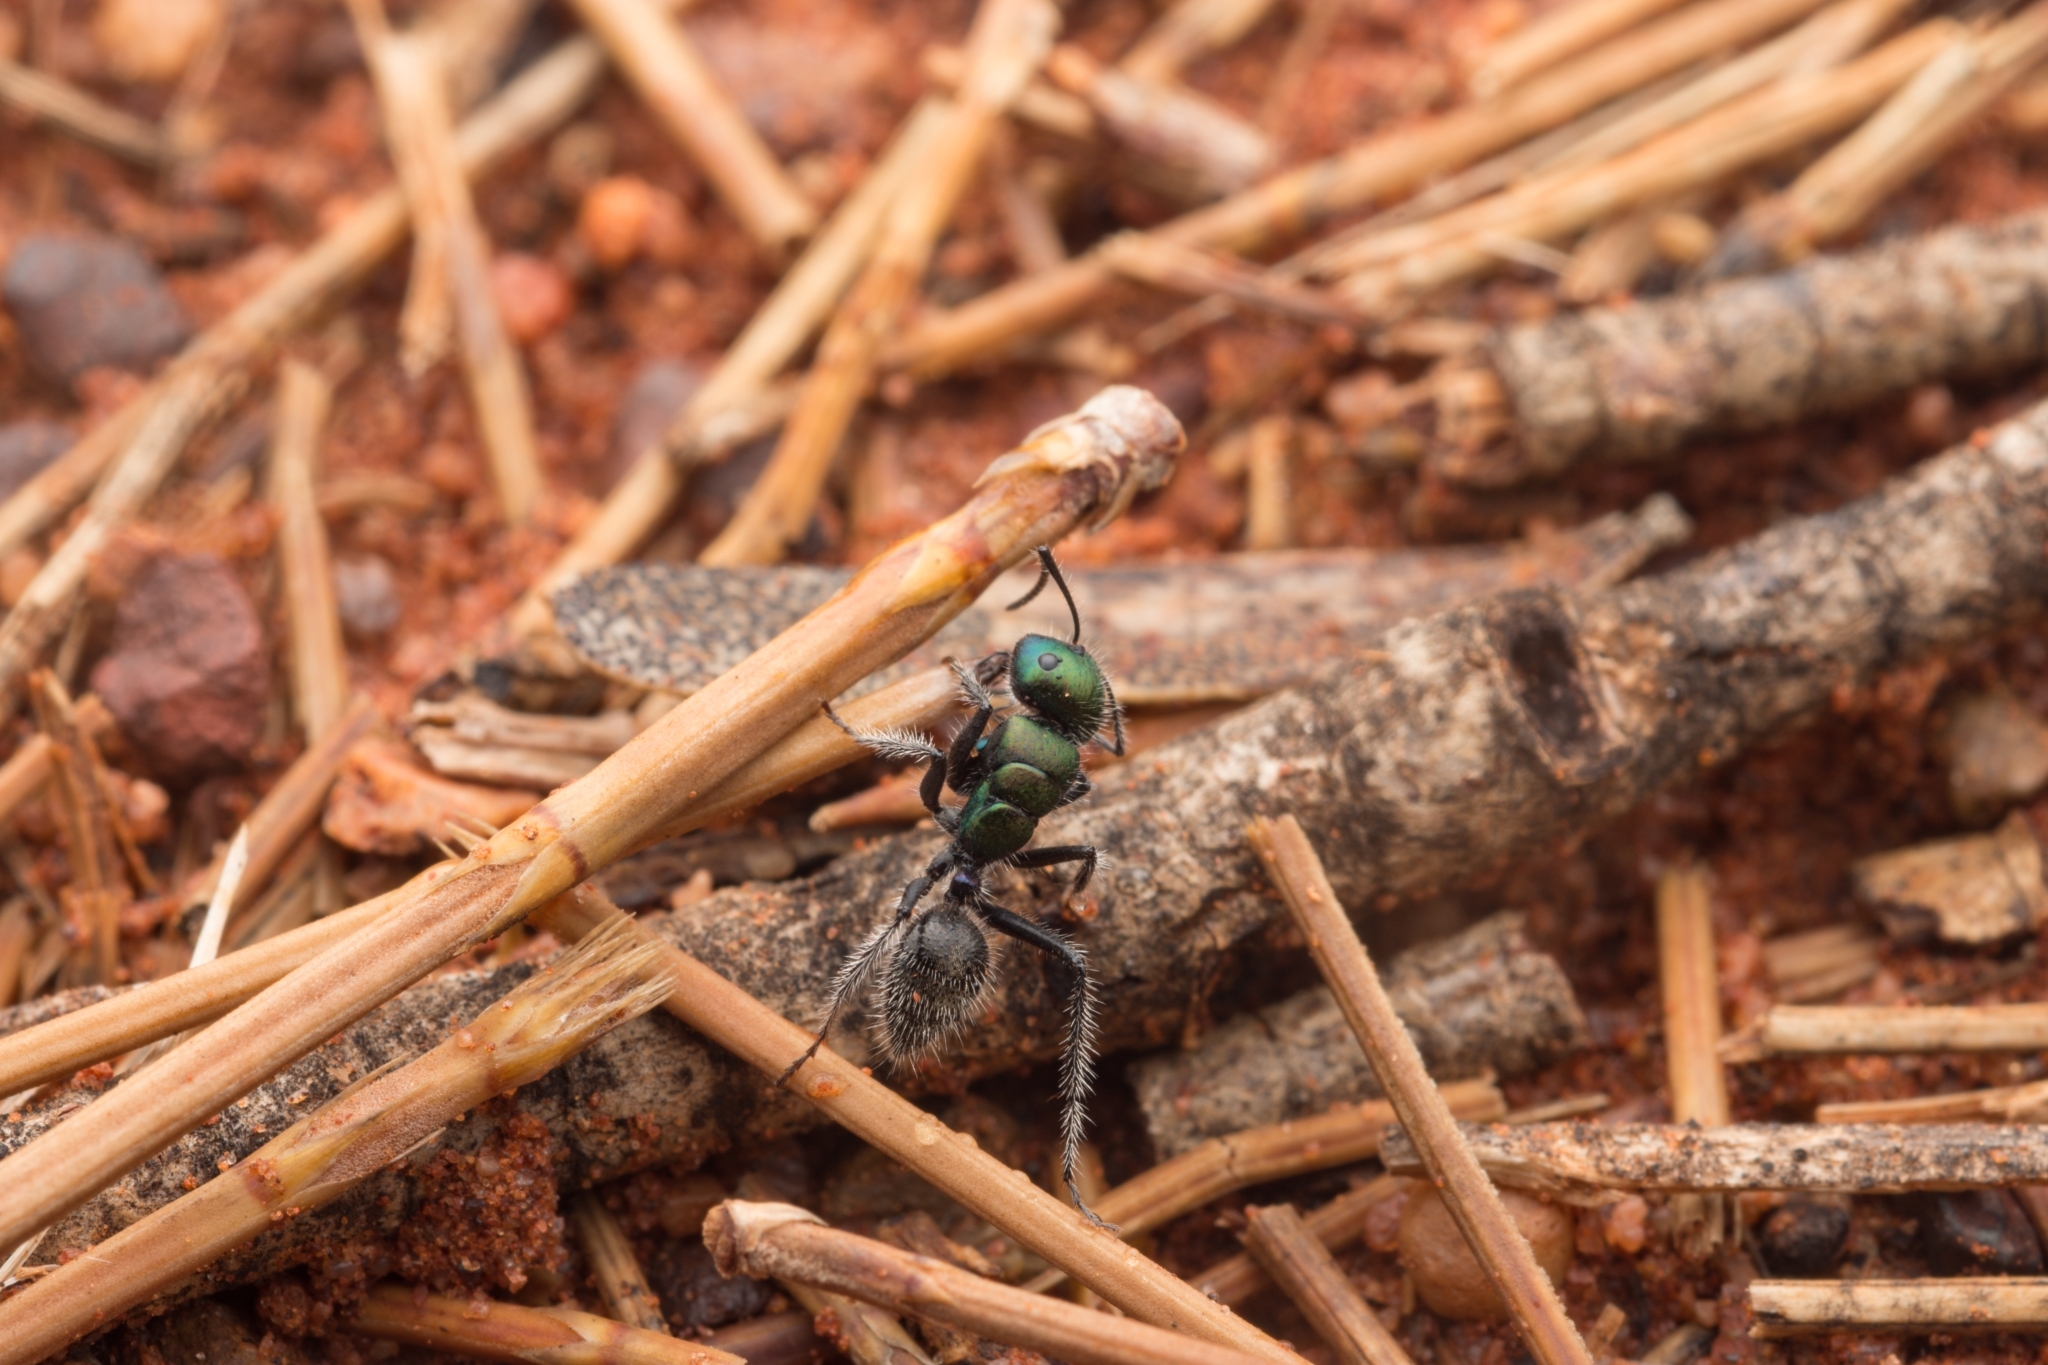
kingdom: Animalia
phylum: Arthropoda
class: Insecta
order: Hymenoptera
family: Formicidae
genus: Calomyrmex
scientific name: Calomyrmex purpureus
